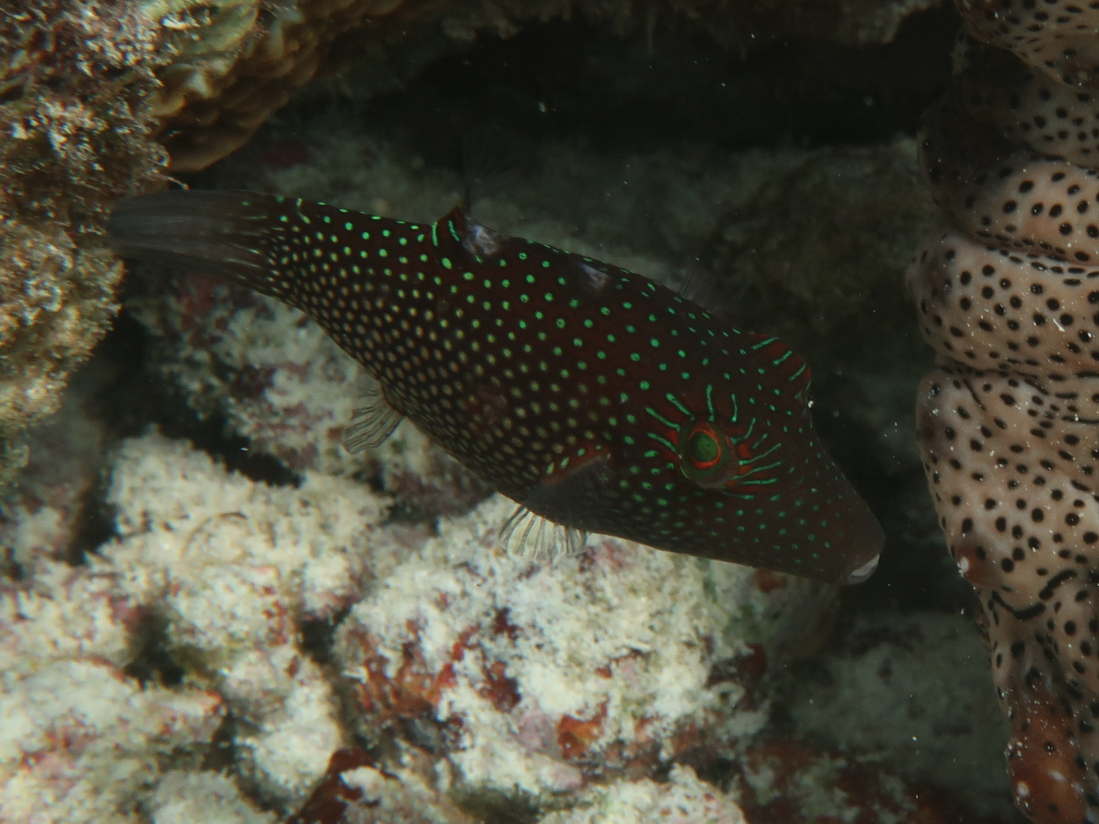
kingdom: Animalia
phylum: Chordata
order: Tetraodontiformes
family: Tetraodontidae
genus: Canthigaster
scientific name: Canthigaster janthinoptera
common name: Honeycomb toby
